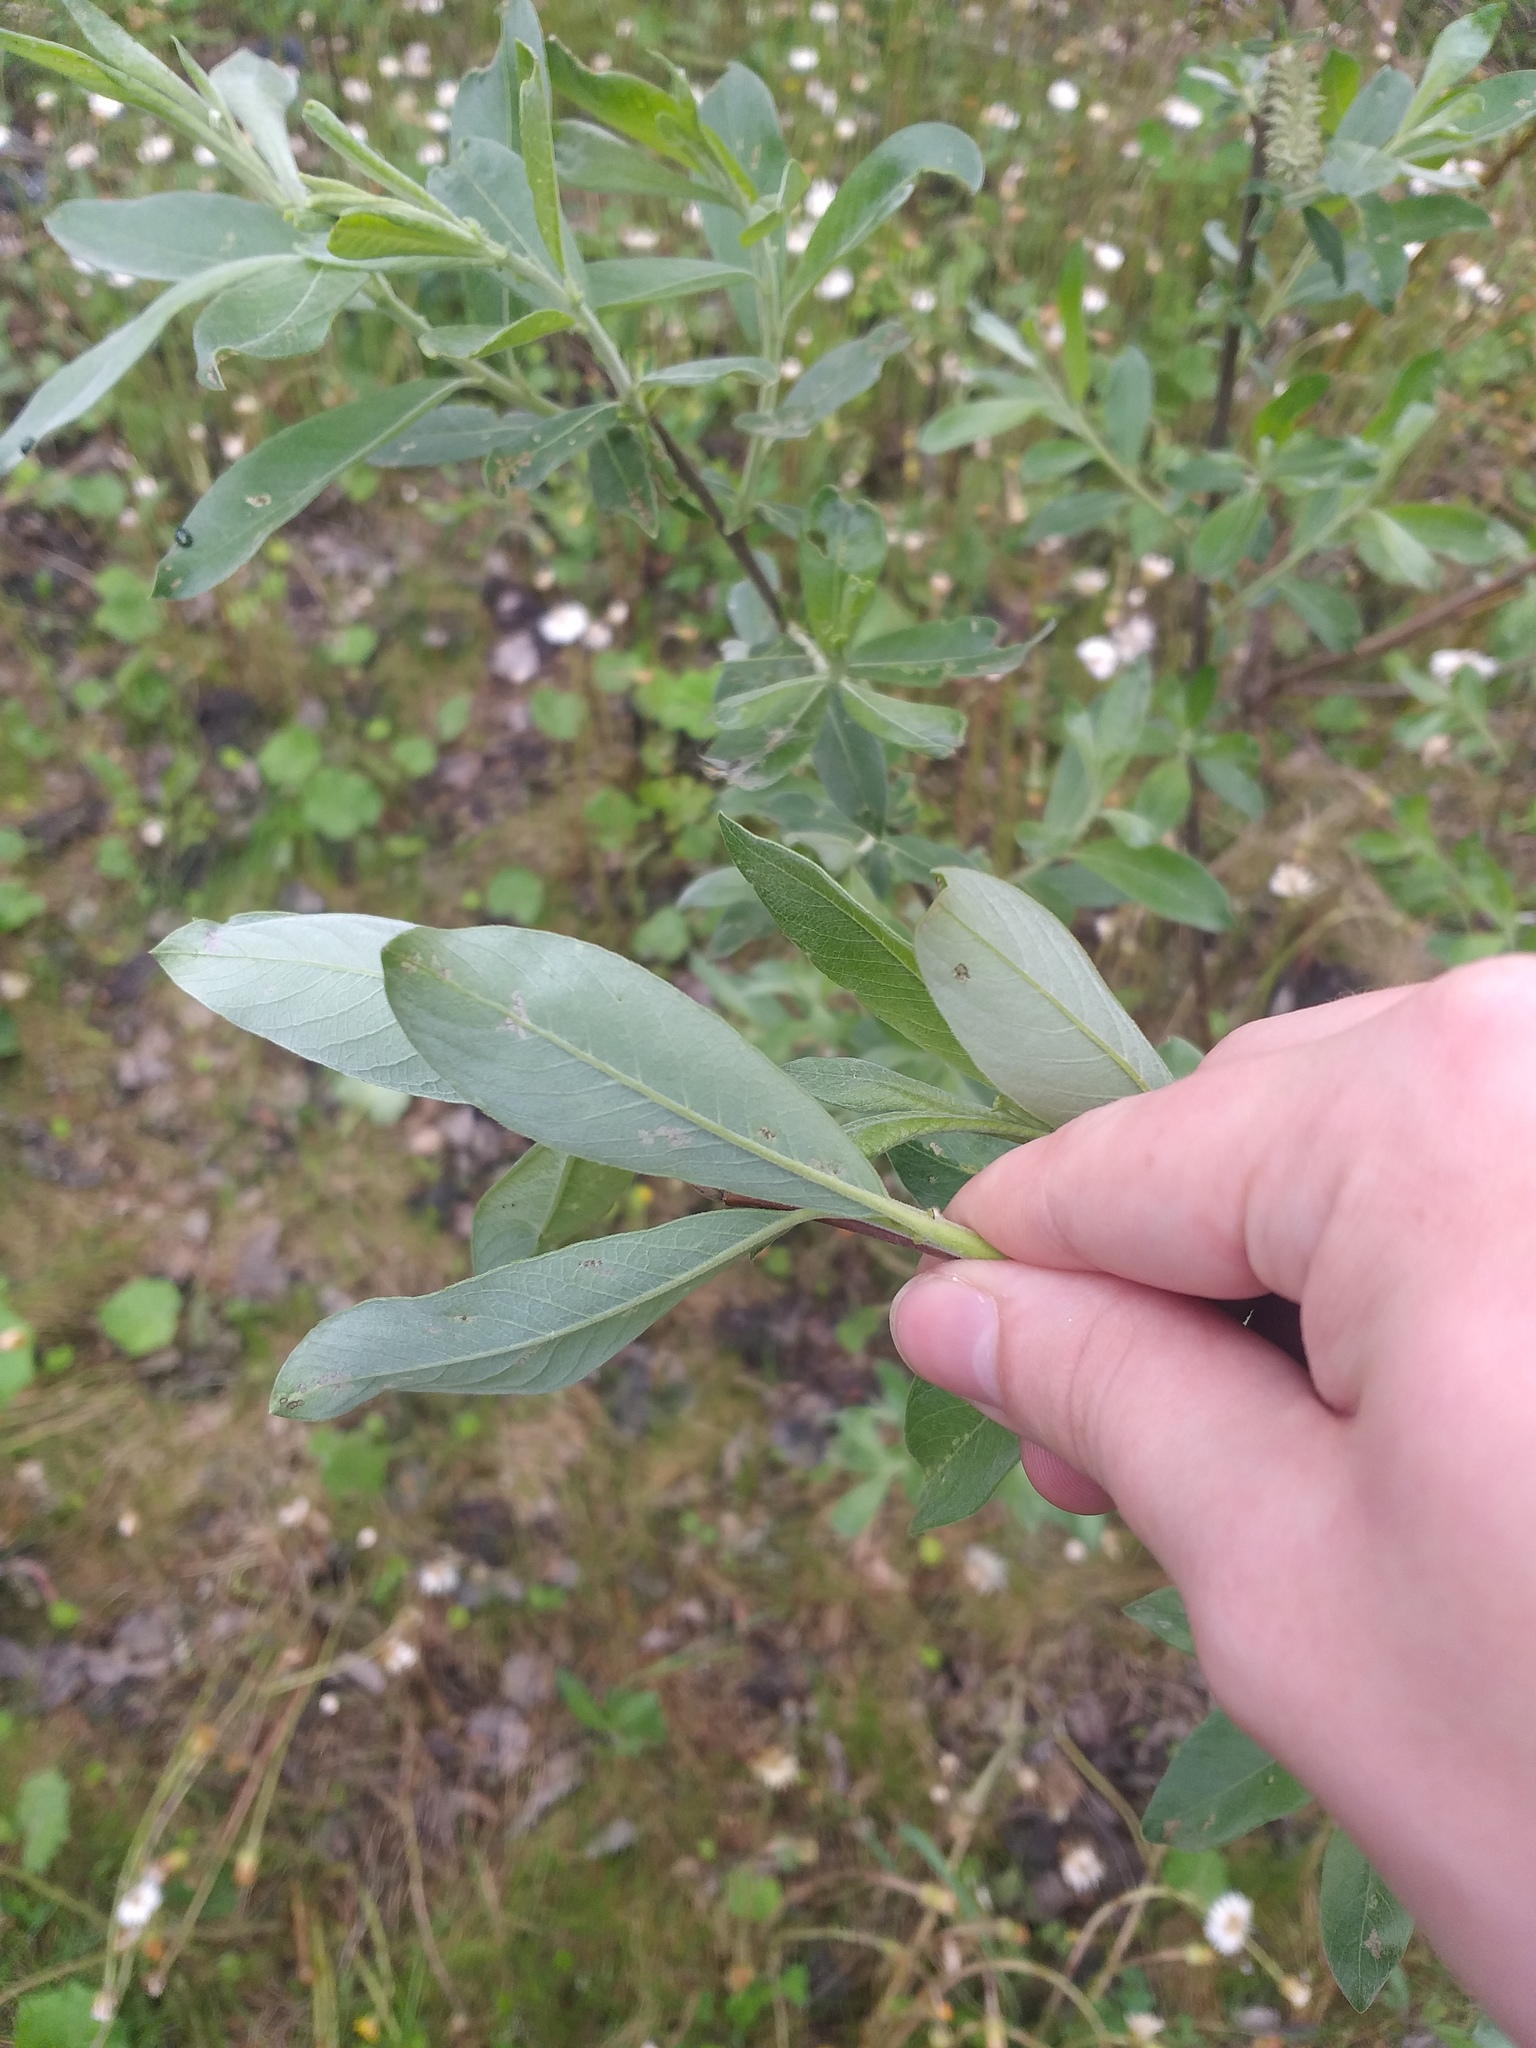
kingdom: Plantae
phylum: Tracheophyta
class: Magnoliopsida
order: Malpighiales
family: Salicaceae
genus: Salix
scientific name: Salix cinerea
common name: Common sallow
